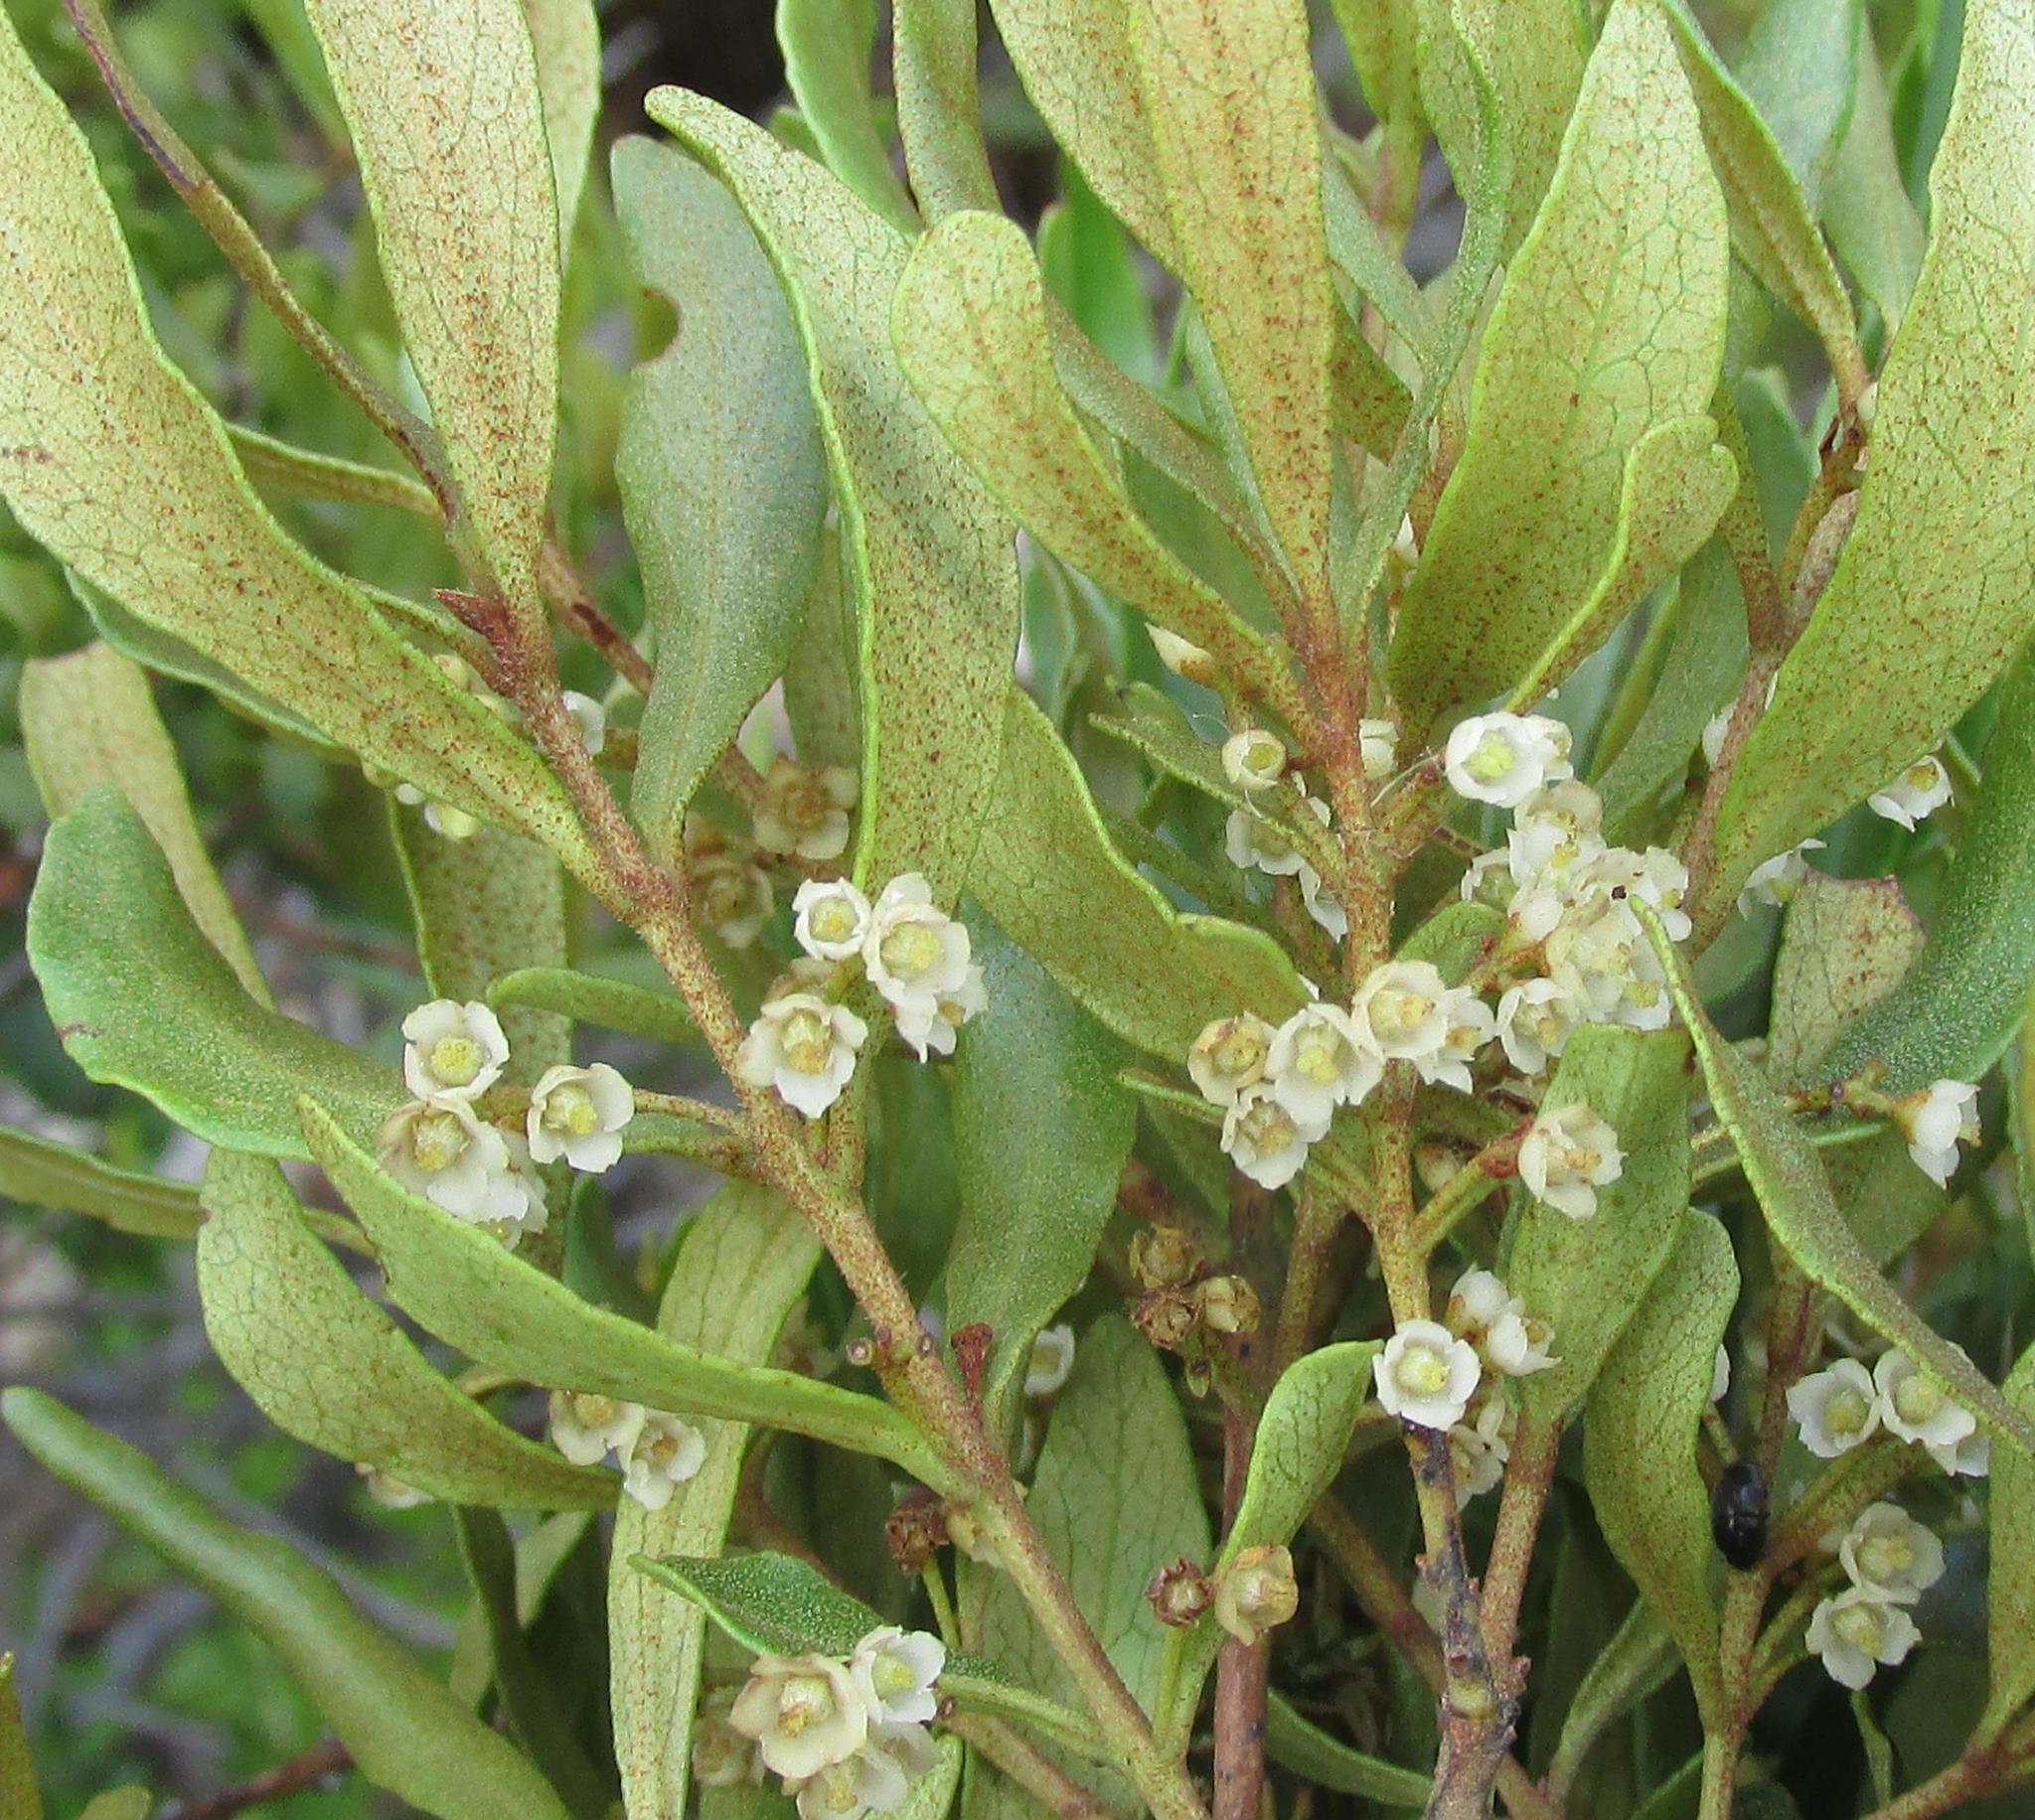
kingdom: Plantae
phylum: Tracheophyta
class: Magnoliopsida
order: Ericales
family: Ebenaceae
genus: Euclea
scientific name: Euclea crispa
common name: Blue guarri
